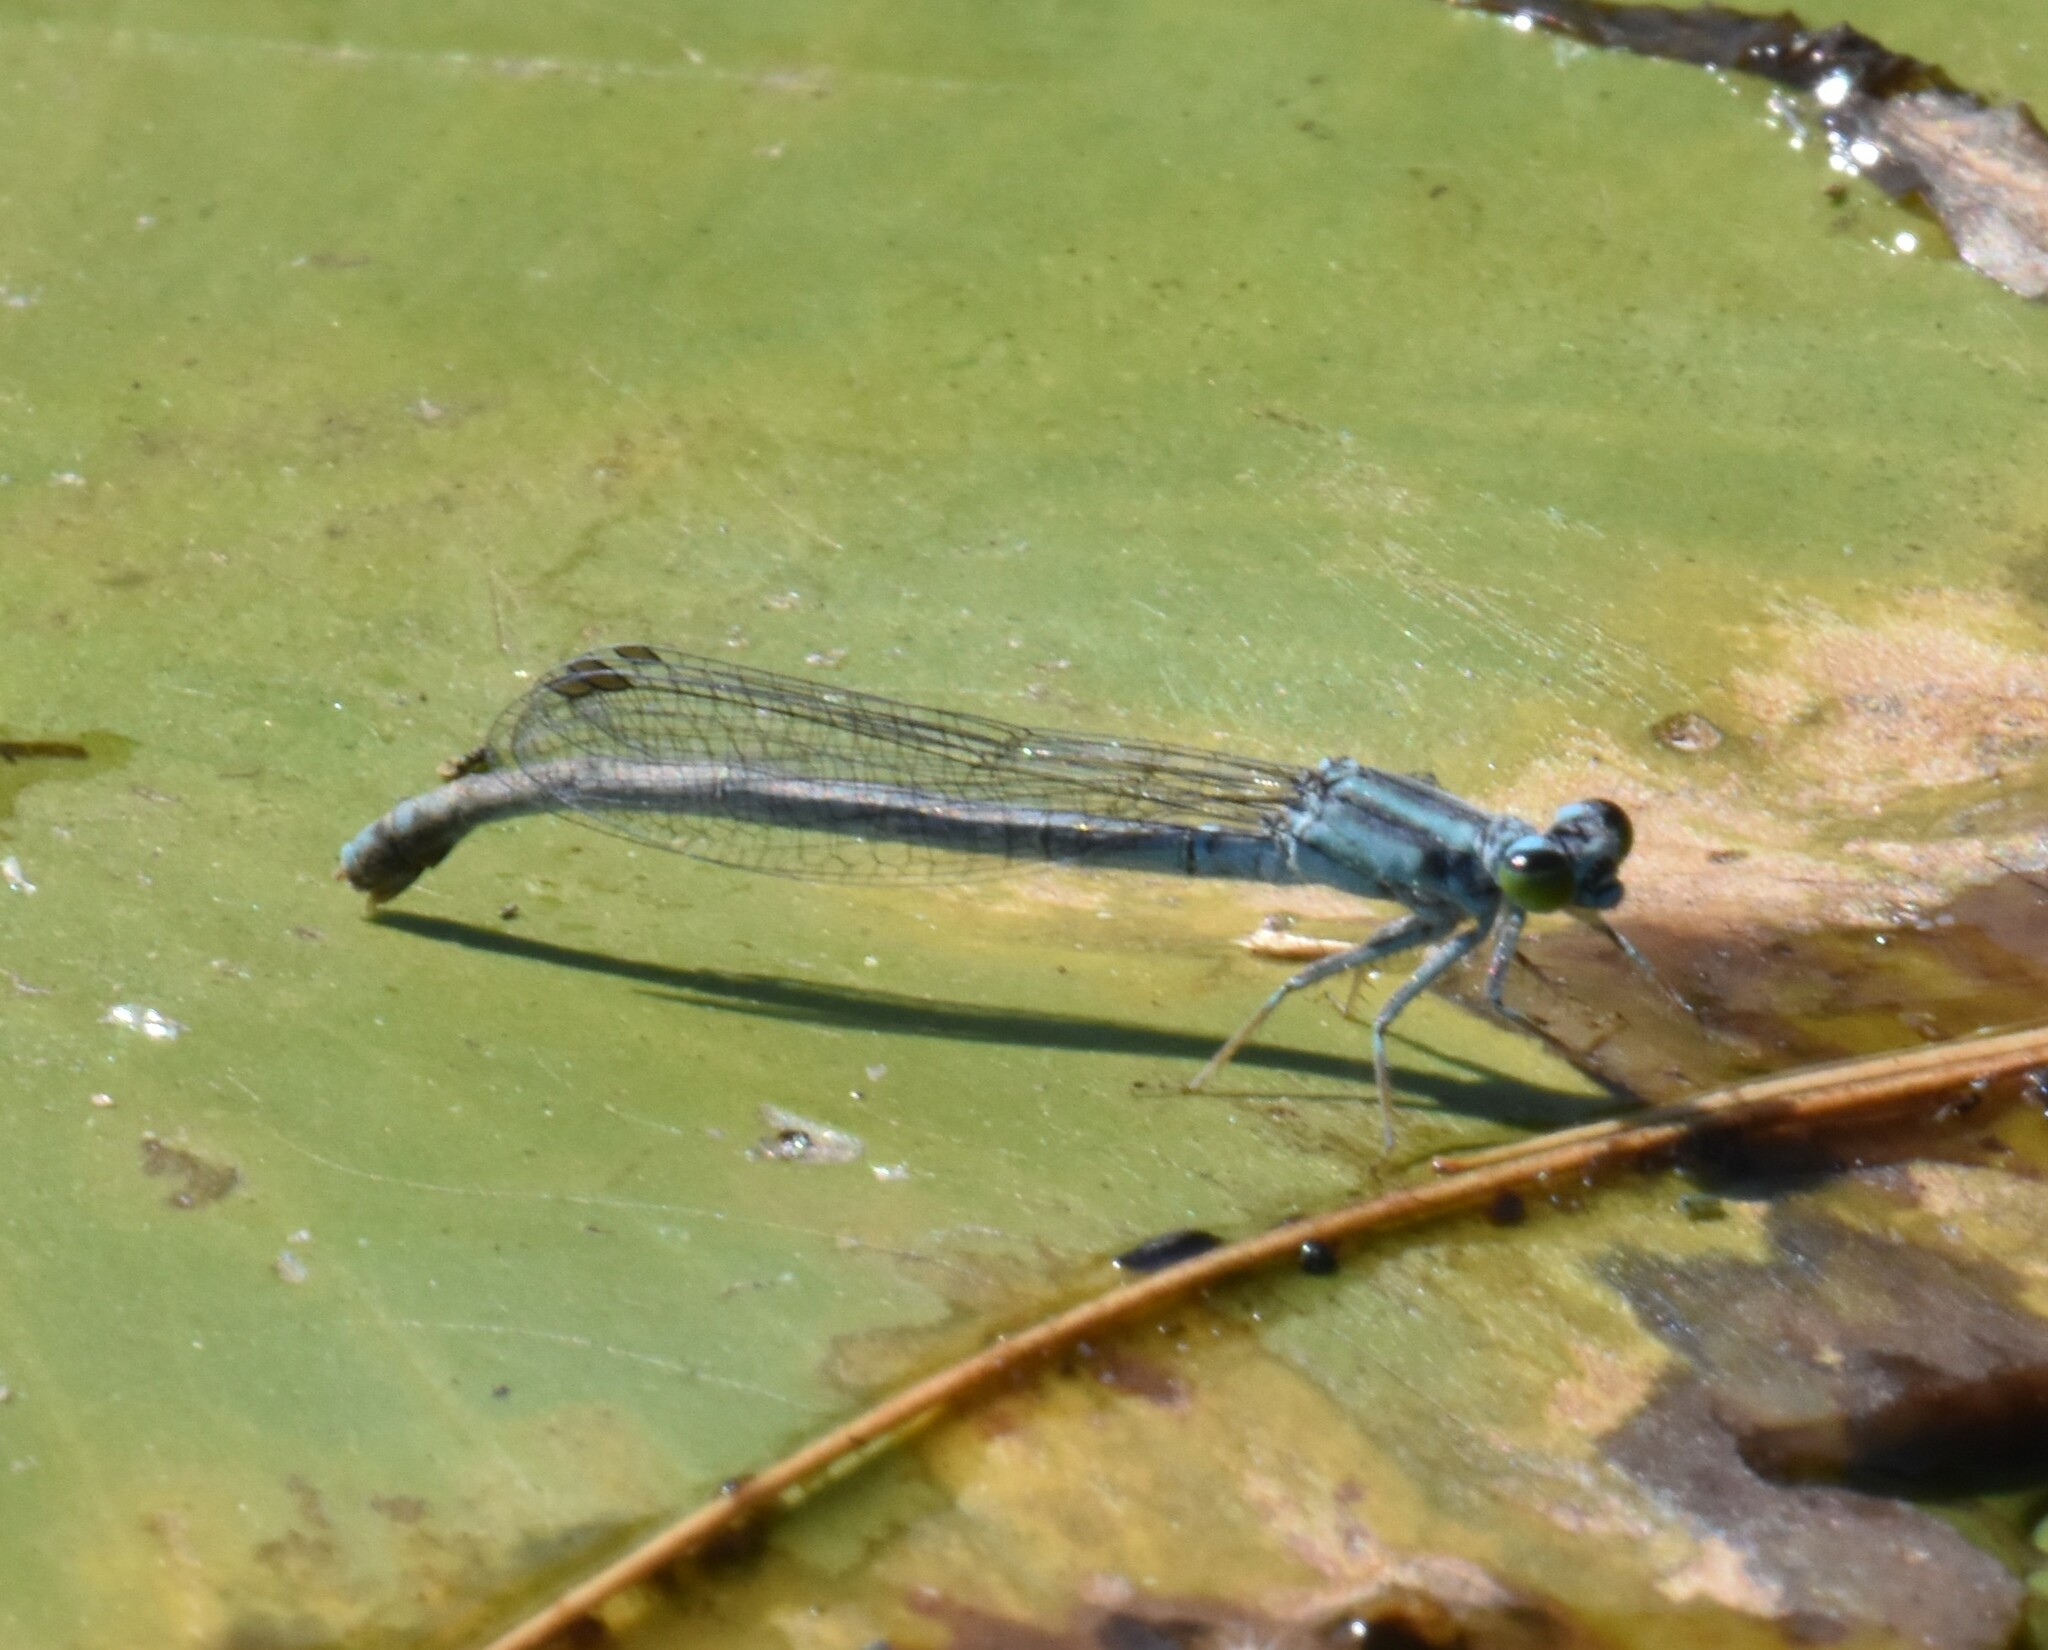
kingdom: Animalia
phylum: Arthropoda
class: Insecta
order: Odonata
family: Coenagrionidae
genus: Ischnura
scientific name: Ischnura kellicotti
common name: Lilypad forktail
